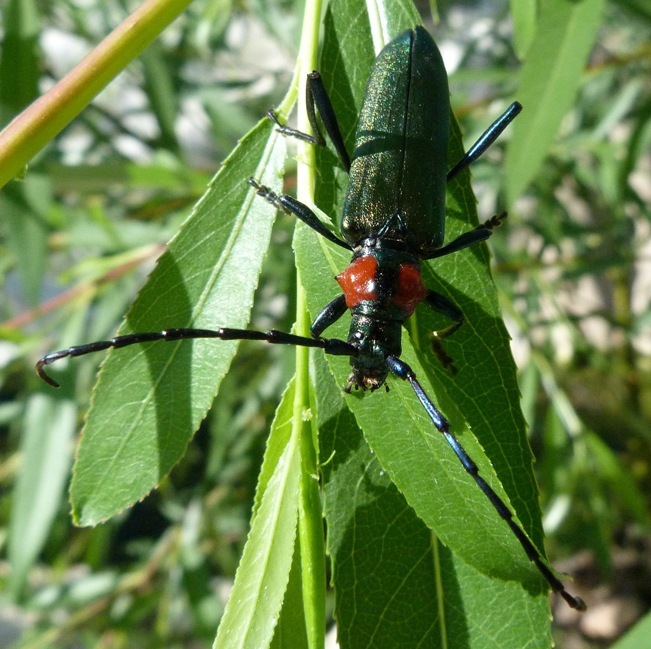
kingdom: Animalia
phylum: Arthropoda
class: Insecta
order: Coleoptera
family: Cerambycidae
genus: Aromia
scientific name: Aromia moschata
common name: Musk beetle
